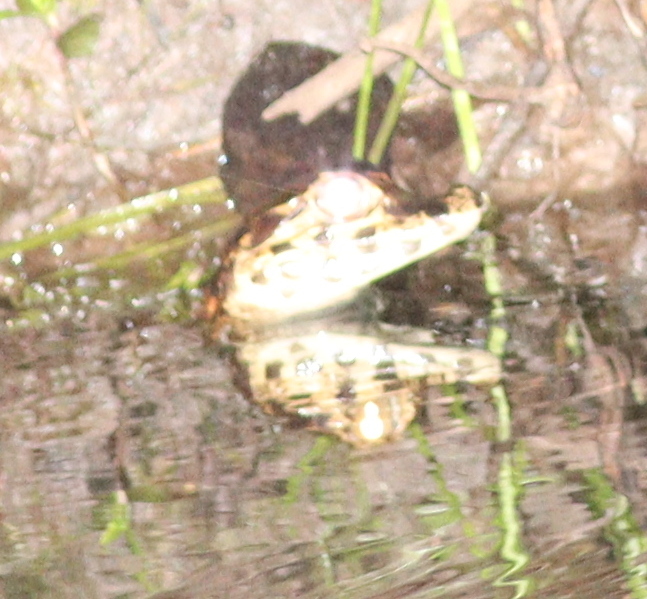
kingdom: Animalia
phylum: Chordata
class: Crocodylia
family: Alligatoridae
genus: Caiman
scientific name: Caiman yacare
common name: Yacare caiman
